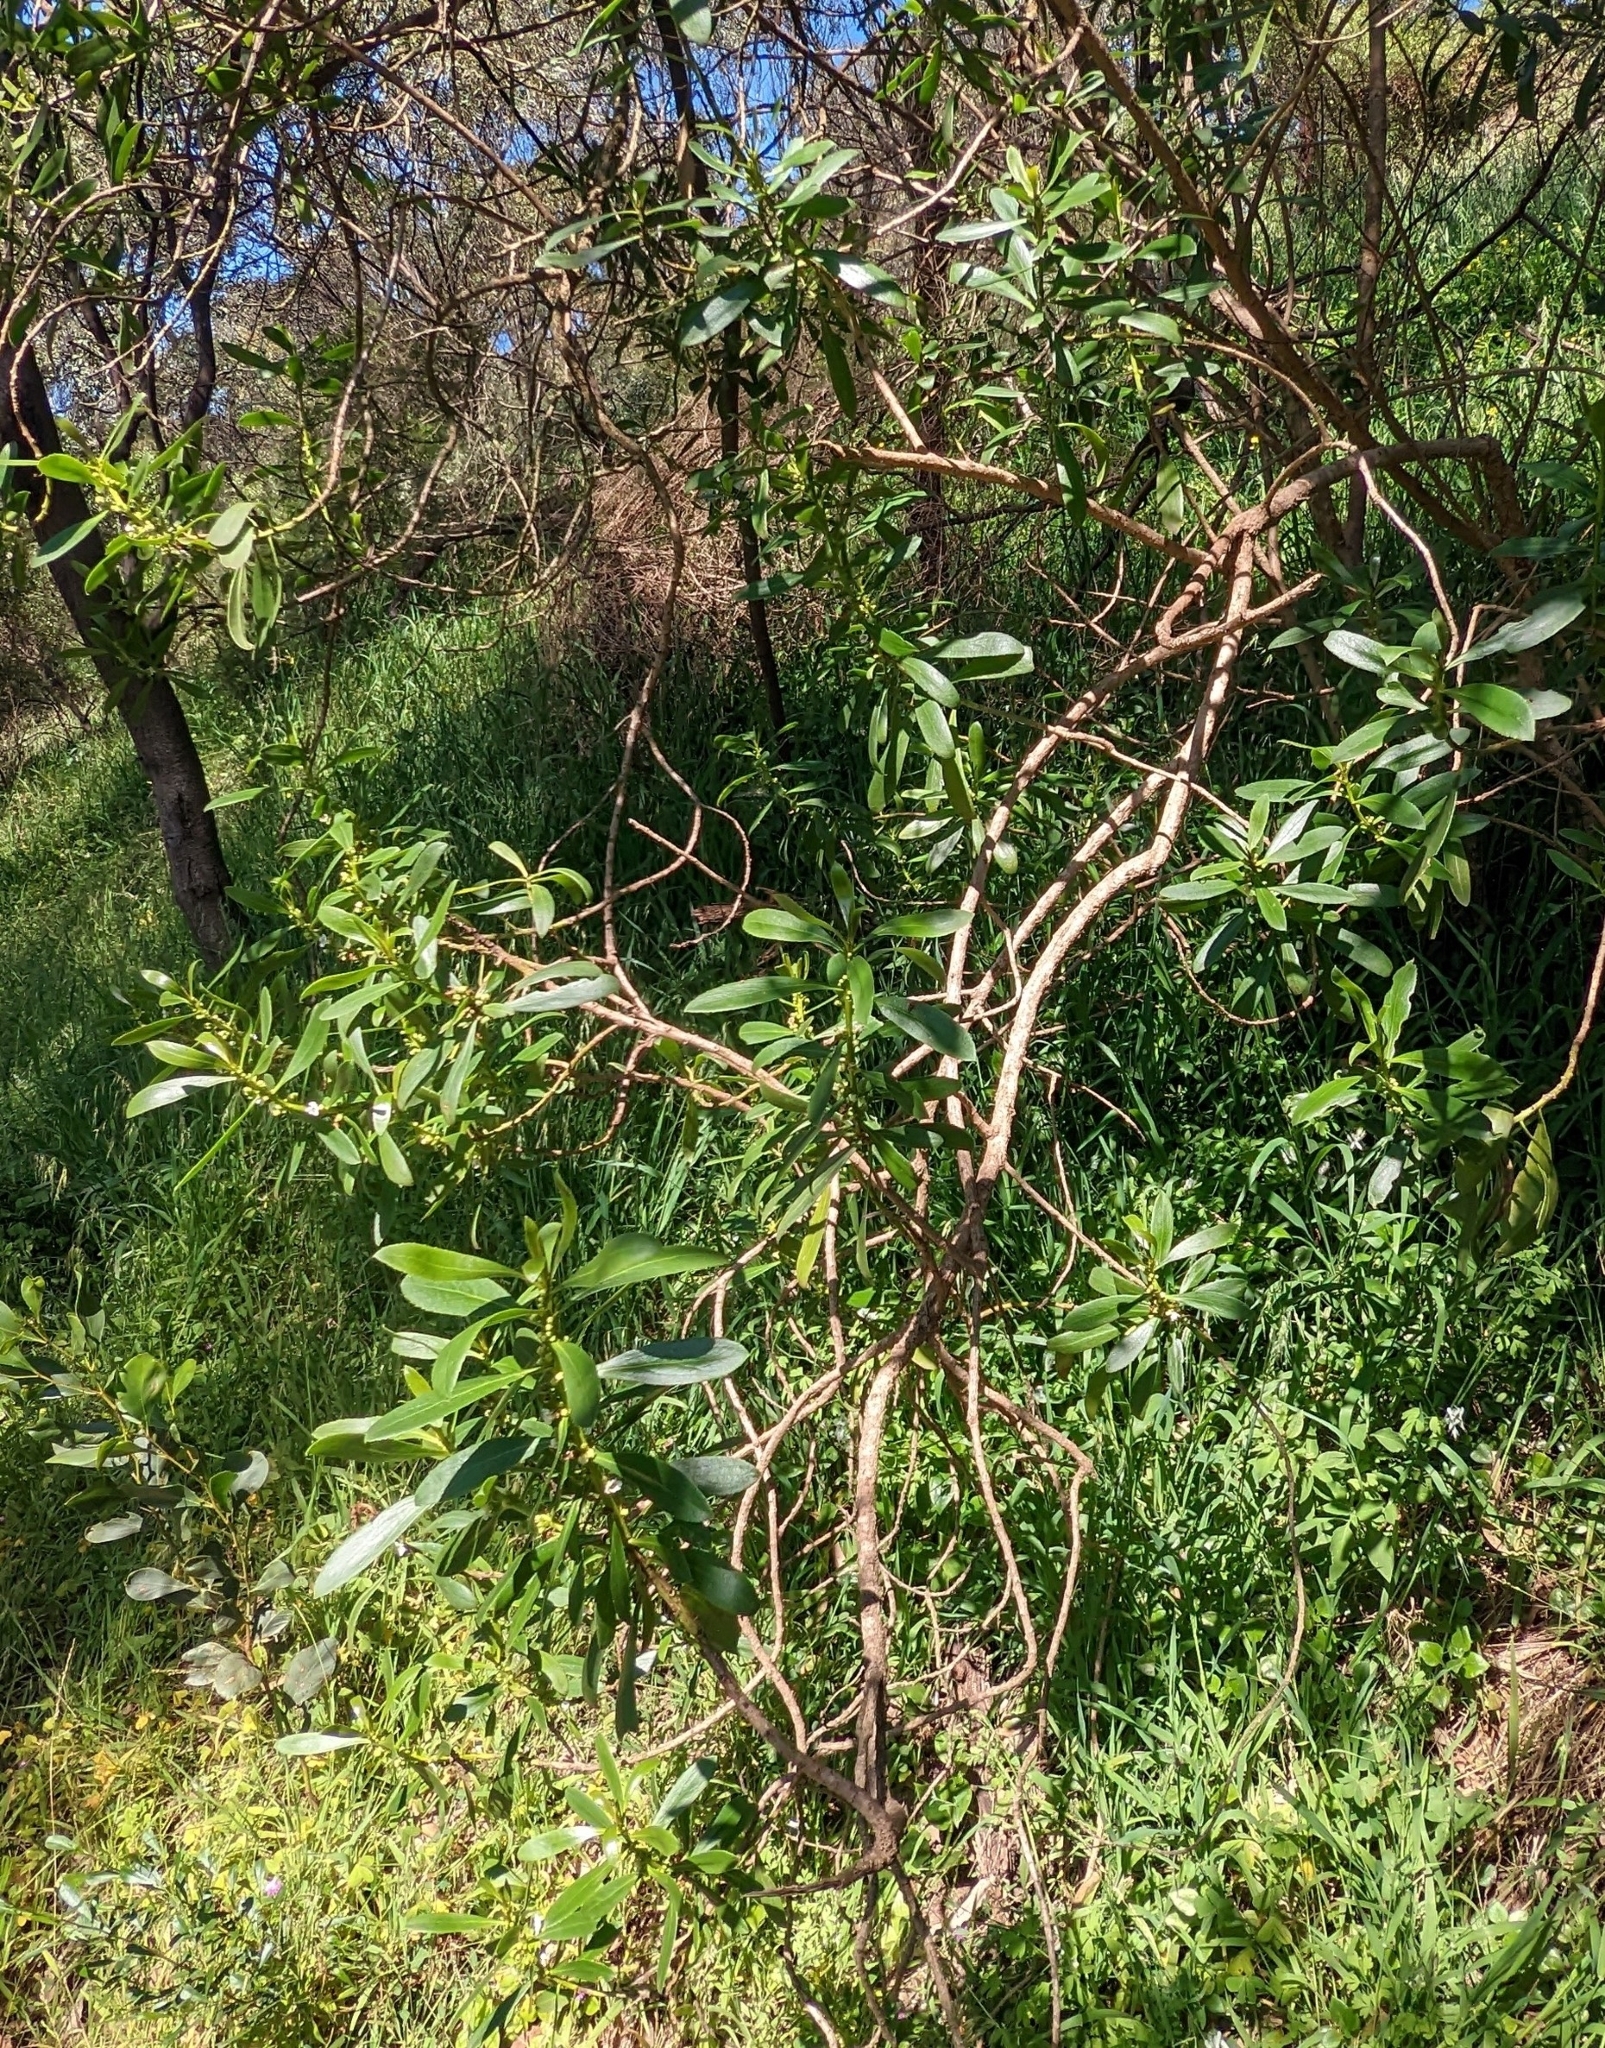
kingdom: Plantae
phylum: Tracheophyta
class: Magnoliopsida
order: Lamiales
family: Scrophulariaceae
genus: Myoporum
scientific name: Myoporum insulare
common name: Common boobialla
